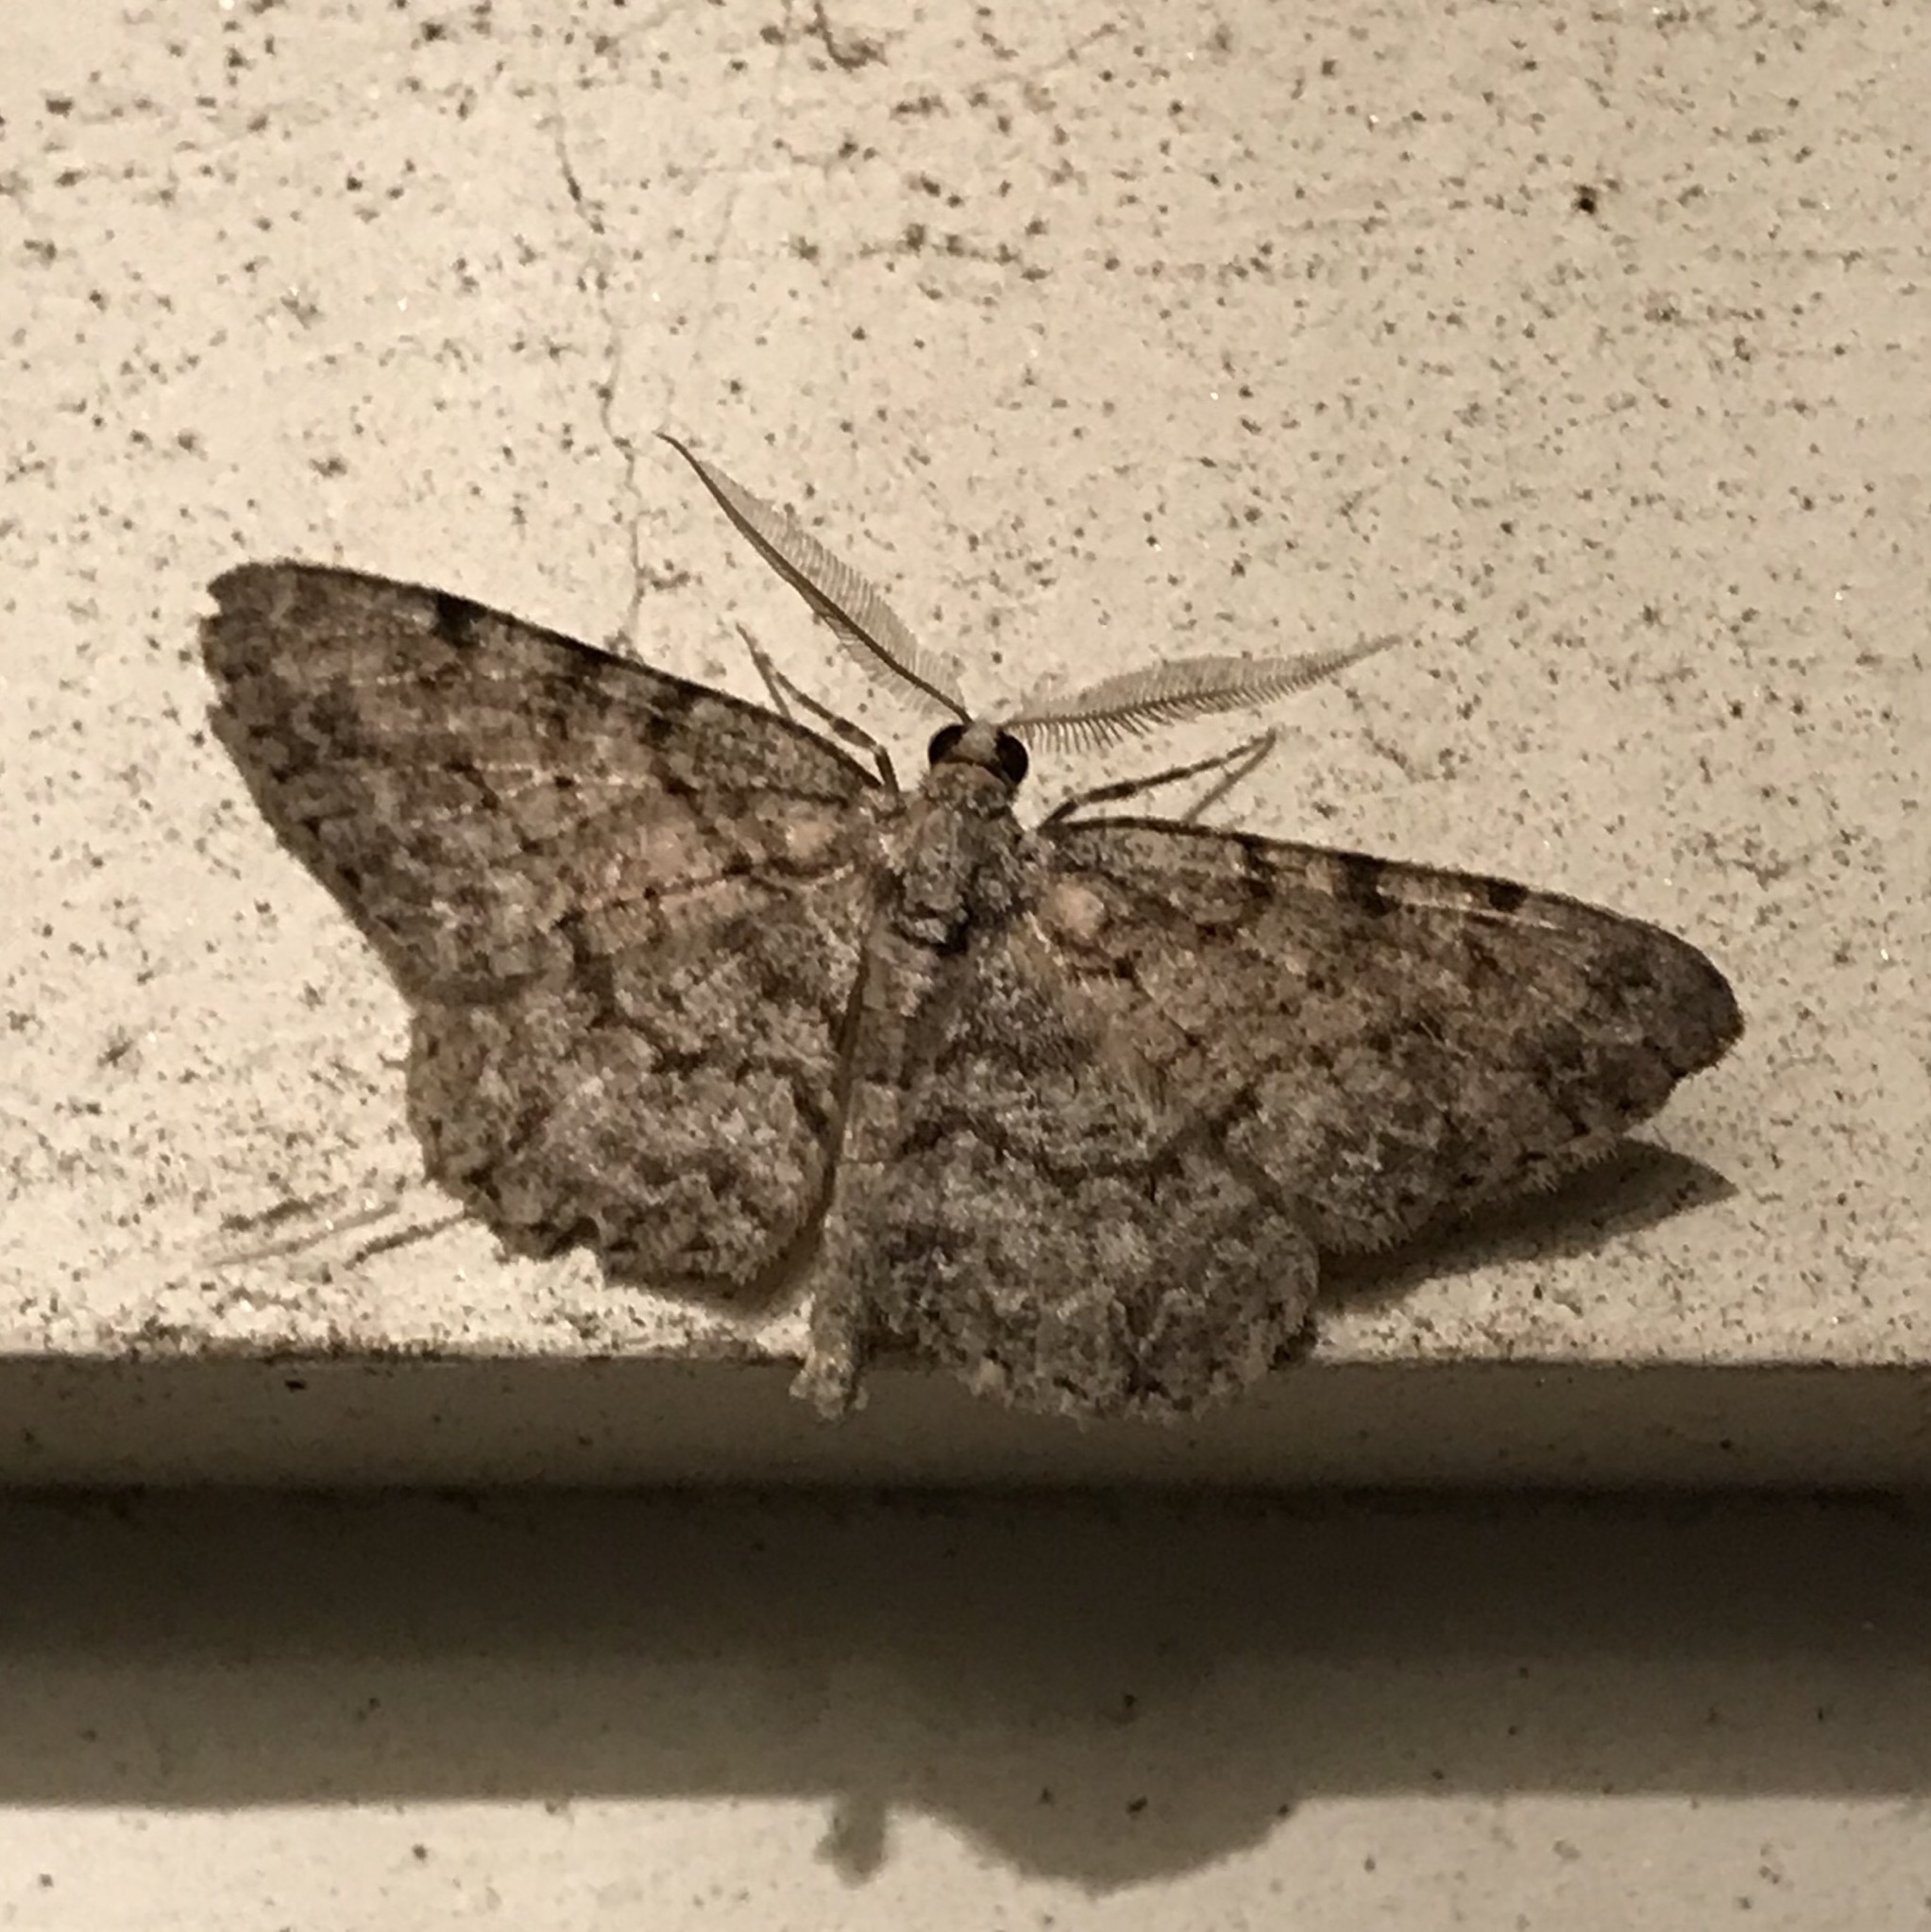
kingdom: Animalia
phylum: Arthropoda
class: Insecta
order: Lepidoptera
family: Geometridae
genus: Protoboarmia
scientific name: Protoboarmia porcelaria
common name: Porcelain gray
